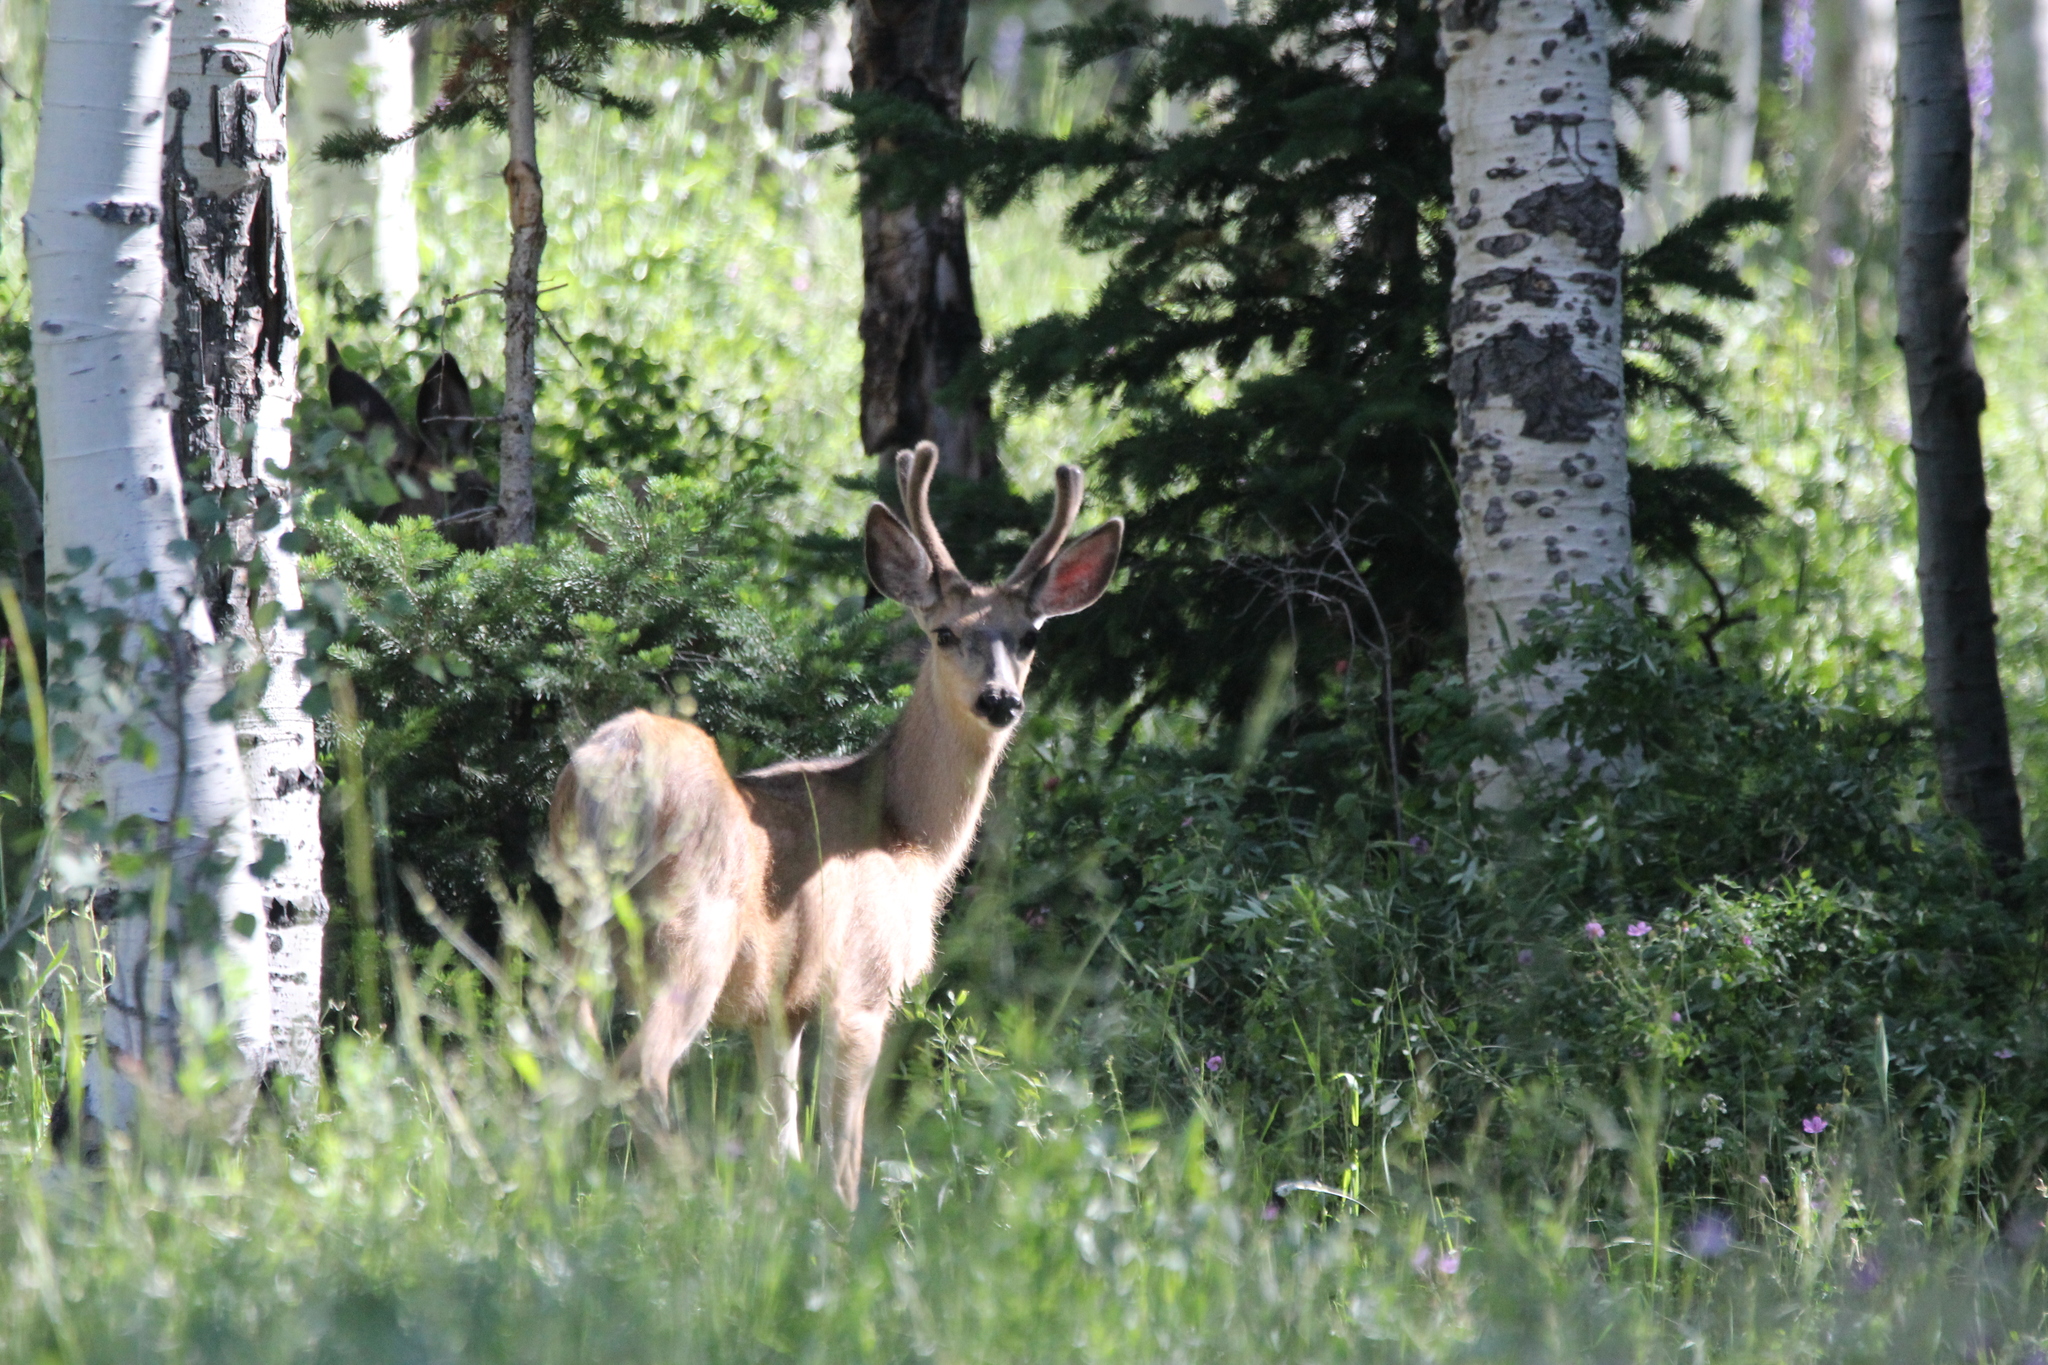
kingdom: Animalia
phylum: Chordata
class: Mammalia
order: Artiodactyla
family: Cervidae
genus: Odocoileus
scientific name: Odocoileus hemionus
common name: Mule deer
